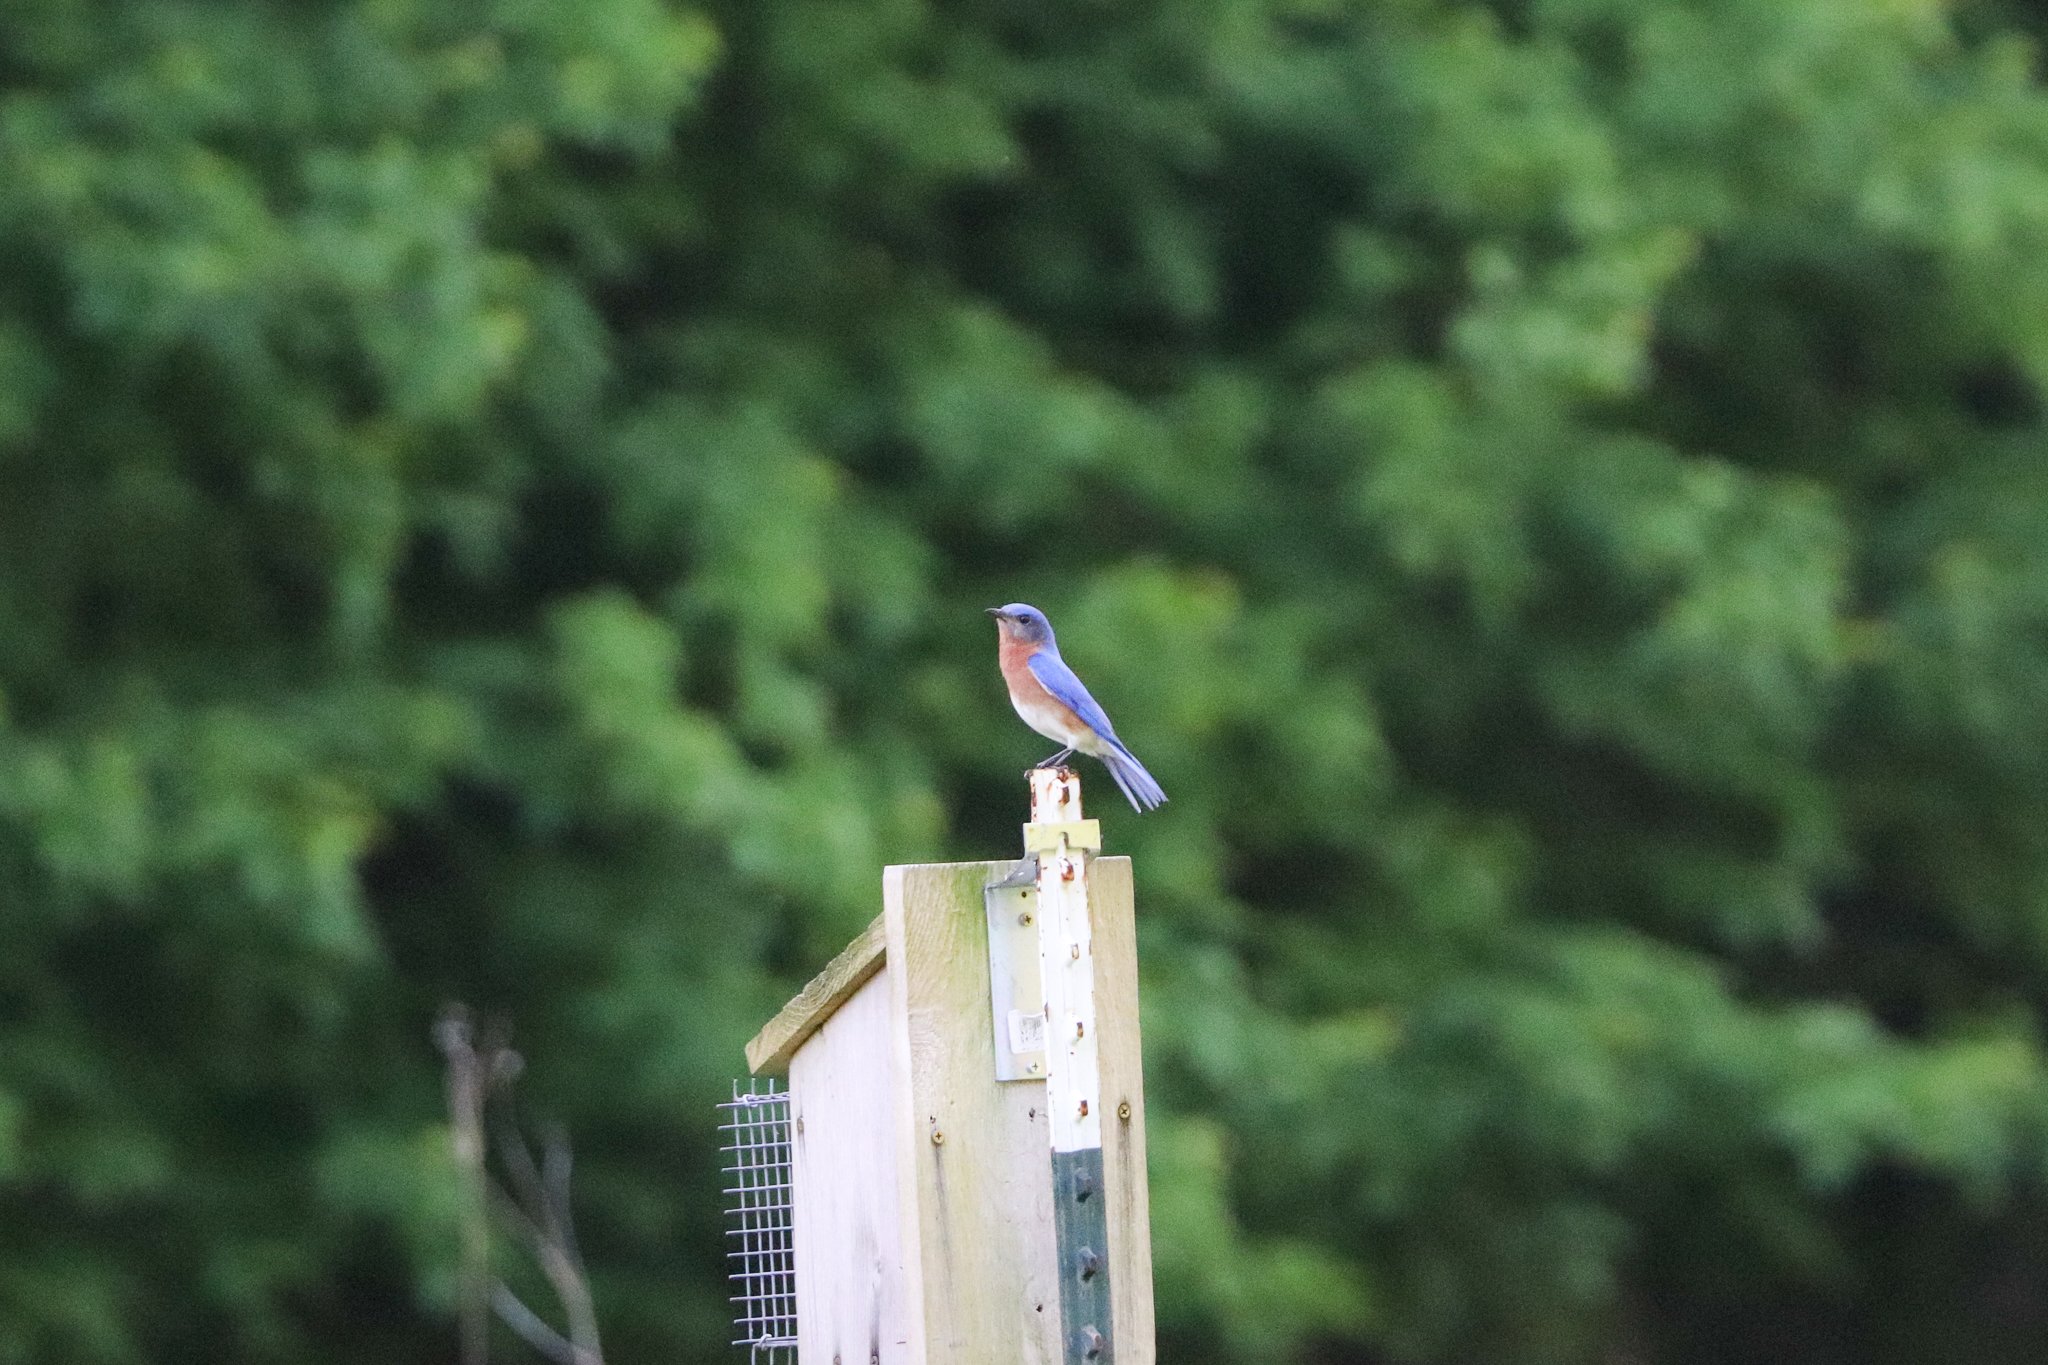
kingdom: Animalia
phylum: Chordata
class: Aves
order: Passeriformes
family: Turdidae
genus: Sialia
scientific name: Sialia sialis
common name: Eastern bluebird
